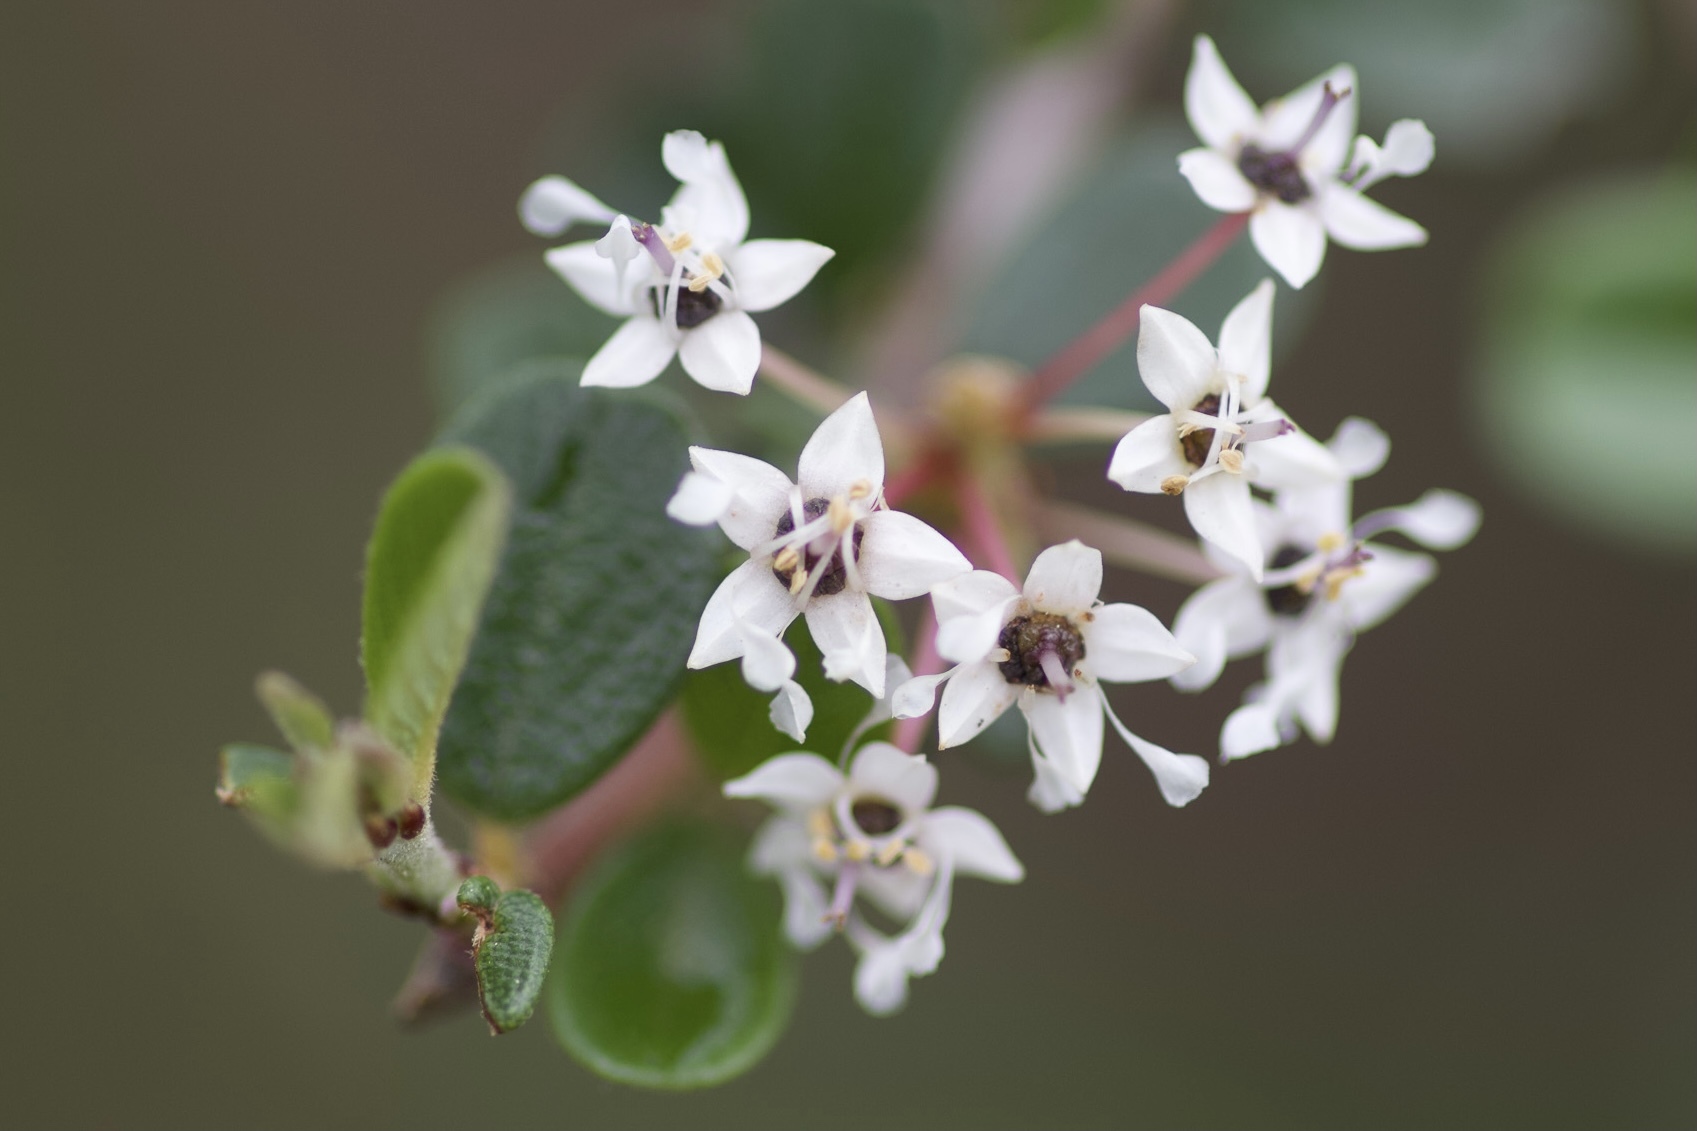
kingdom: Plantae
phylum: Tracheophyta
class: Magnoliopsida
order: Rosales
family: Rhamnaceae
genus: Ceanothus
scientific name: Ceanothus megacarpus
